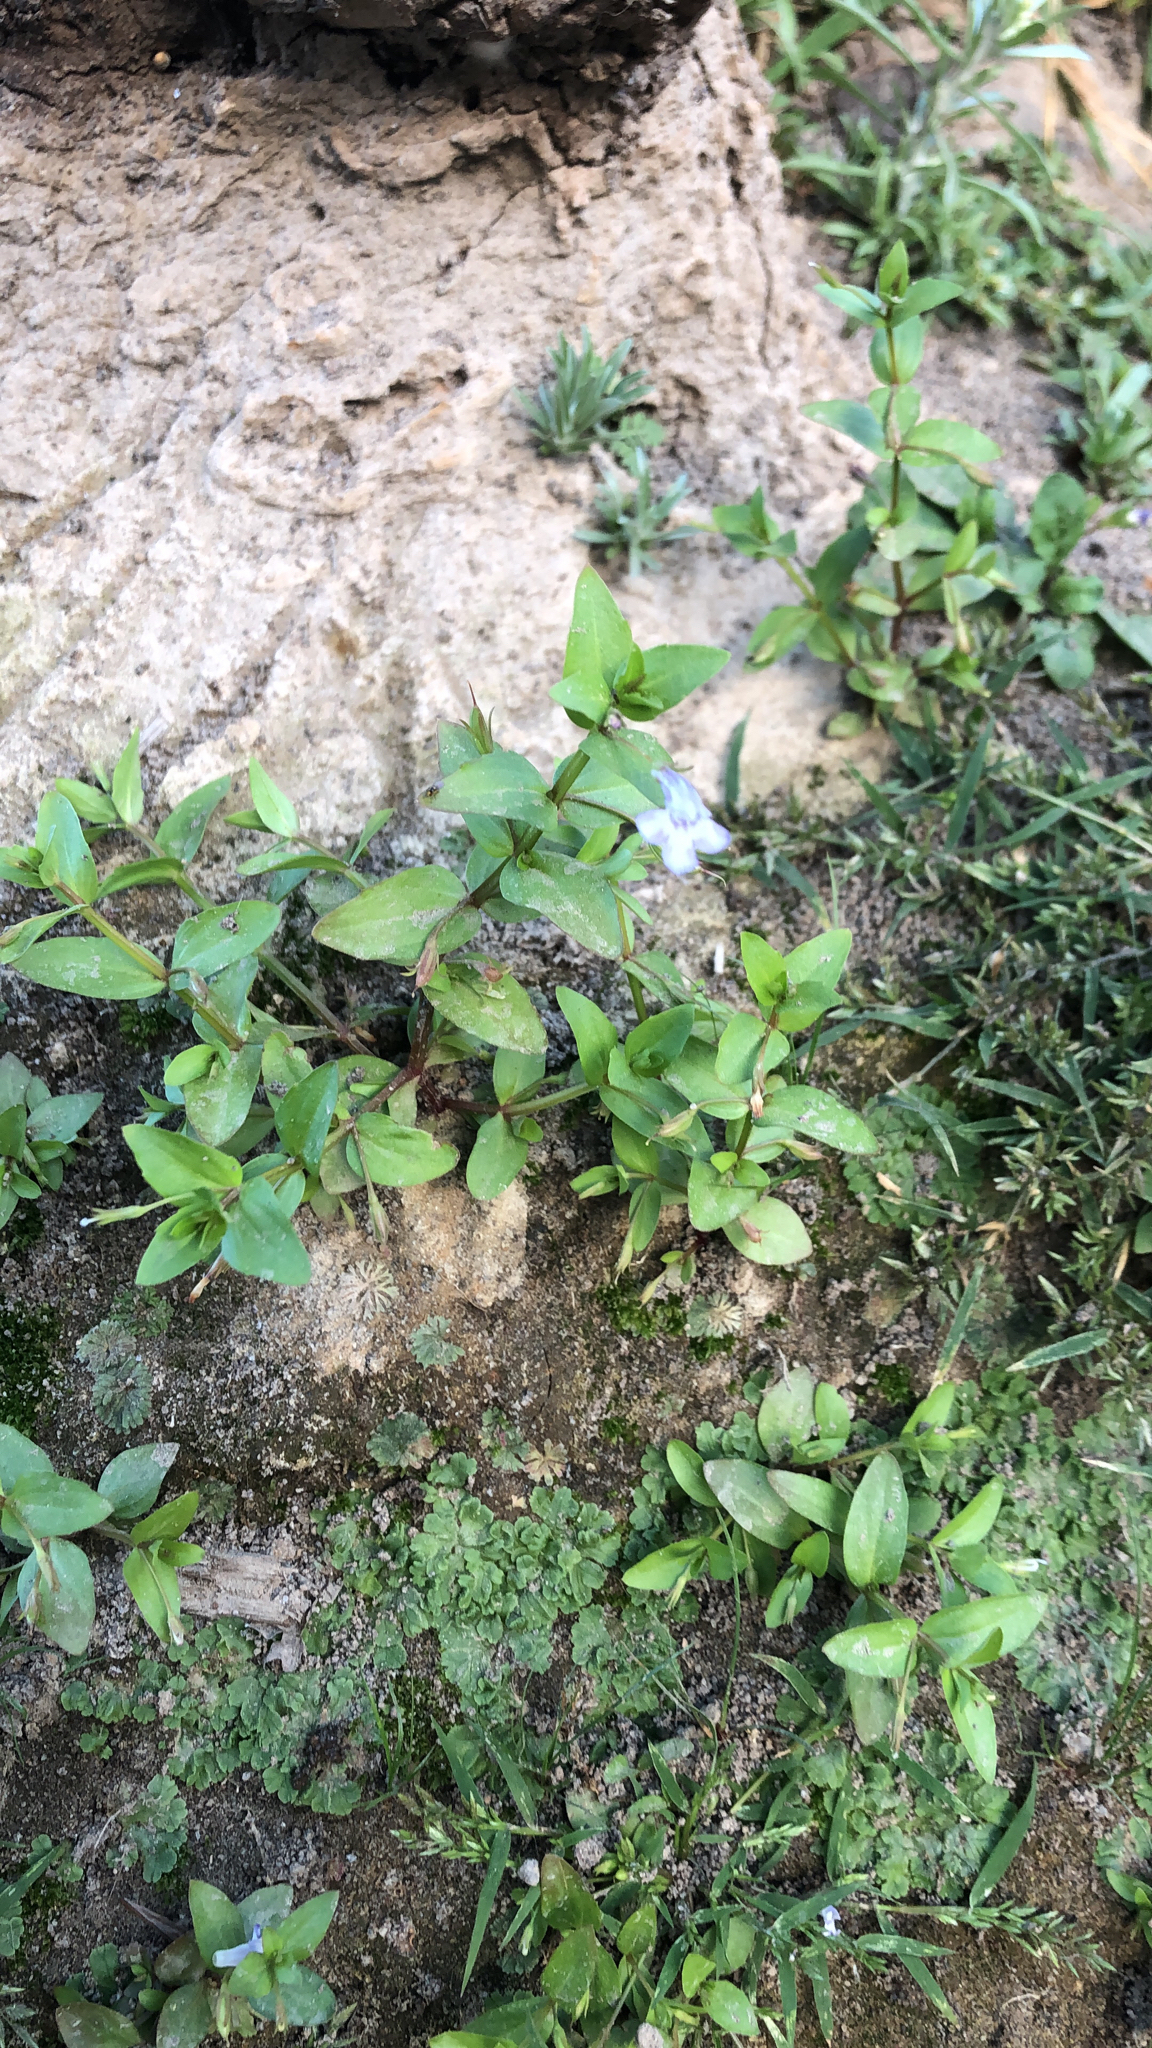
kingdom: Plantae
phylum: Tracheophyta
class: Magnoliopsida
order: Lamiales
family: Linderniaceae
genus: Lindernia
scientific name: Lindernia dubia
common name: Annual false pimpernel
